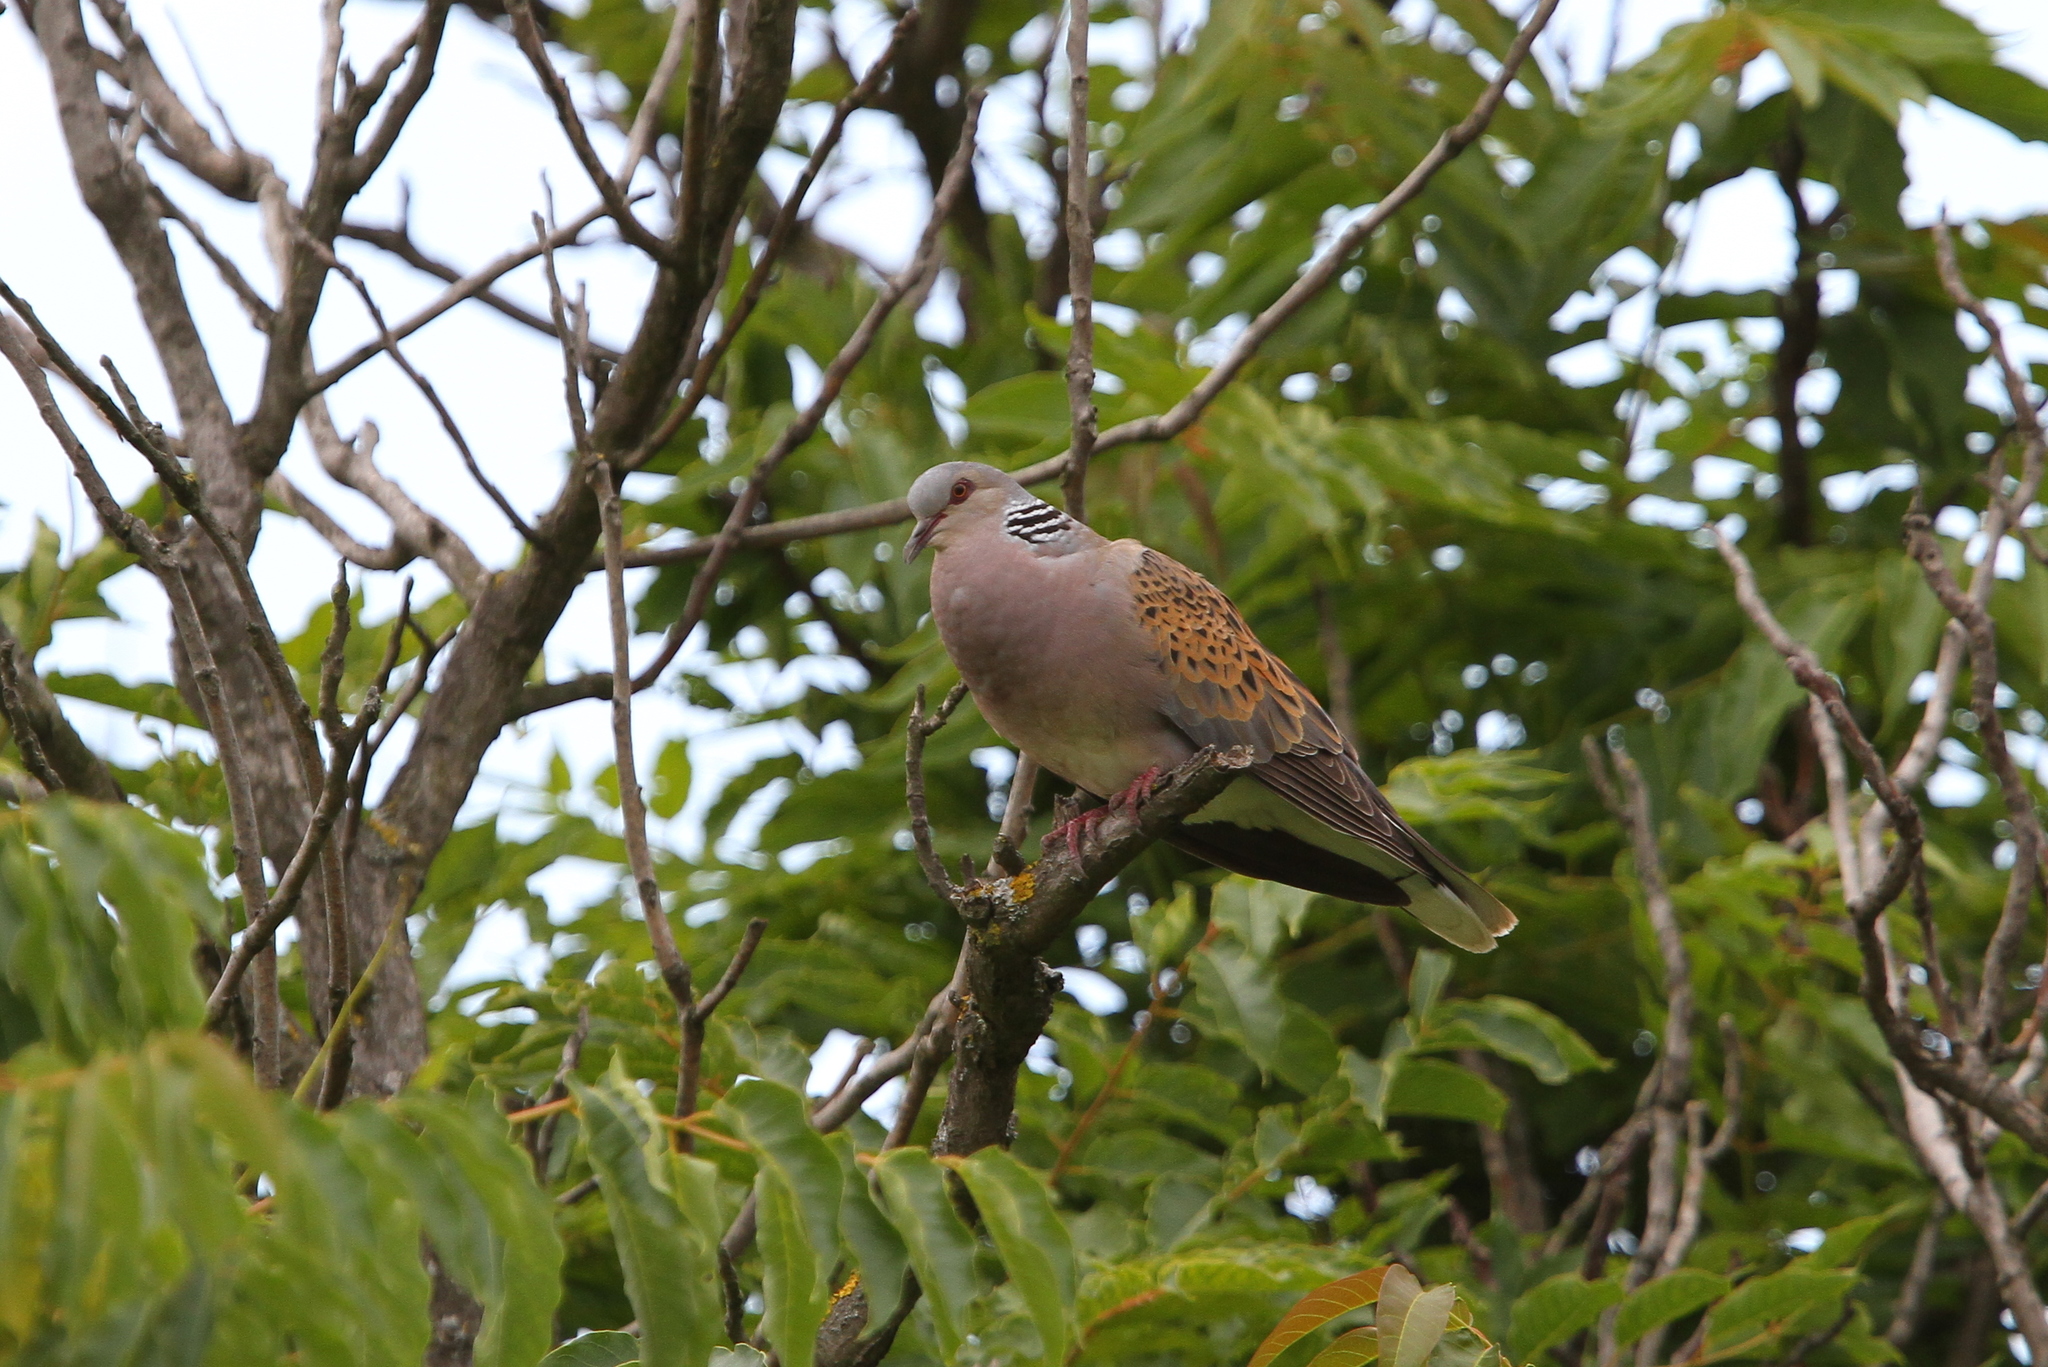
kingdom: Animalia
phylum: Chordata
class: Aves
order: Columbiformes
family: Columbidae
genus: Streptopelia
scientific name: Streptopelia turtur
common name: European turtle dove
